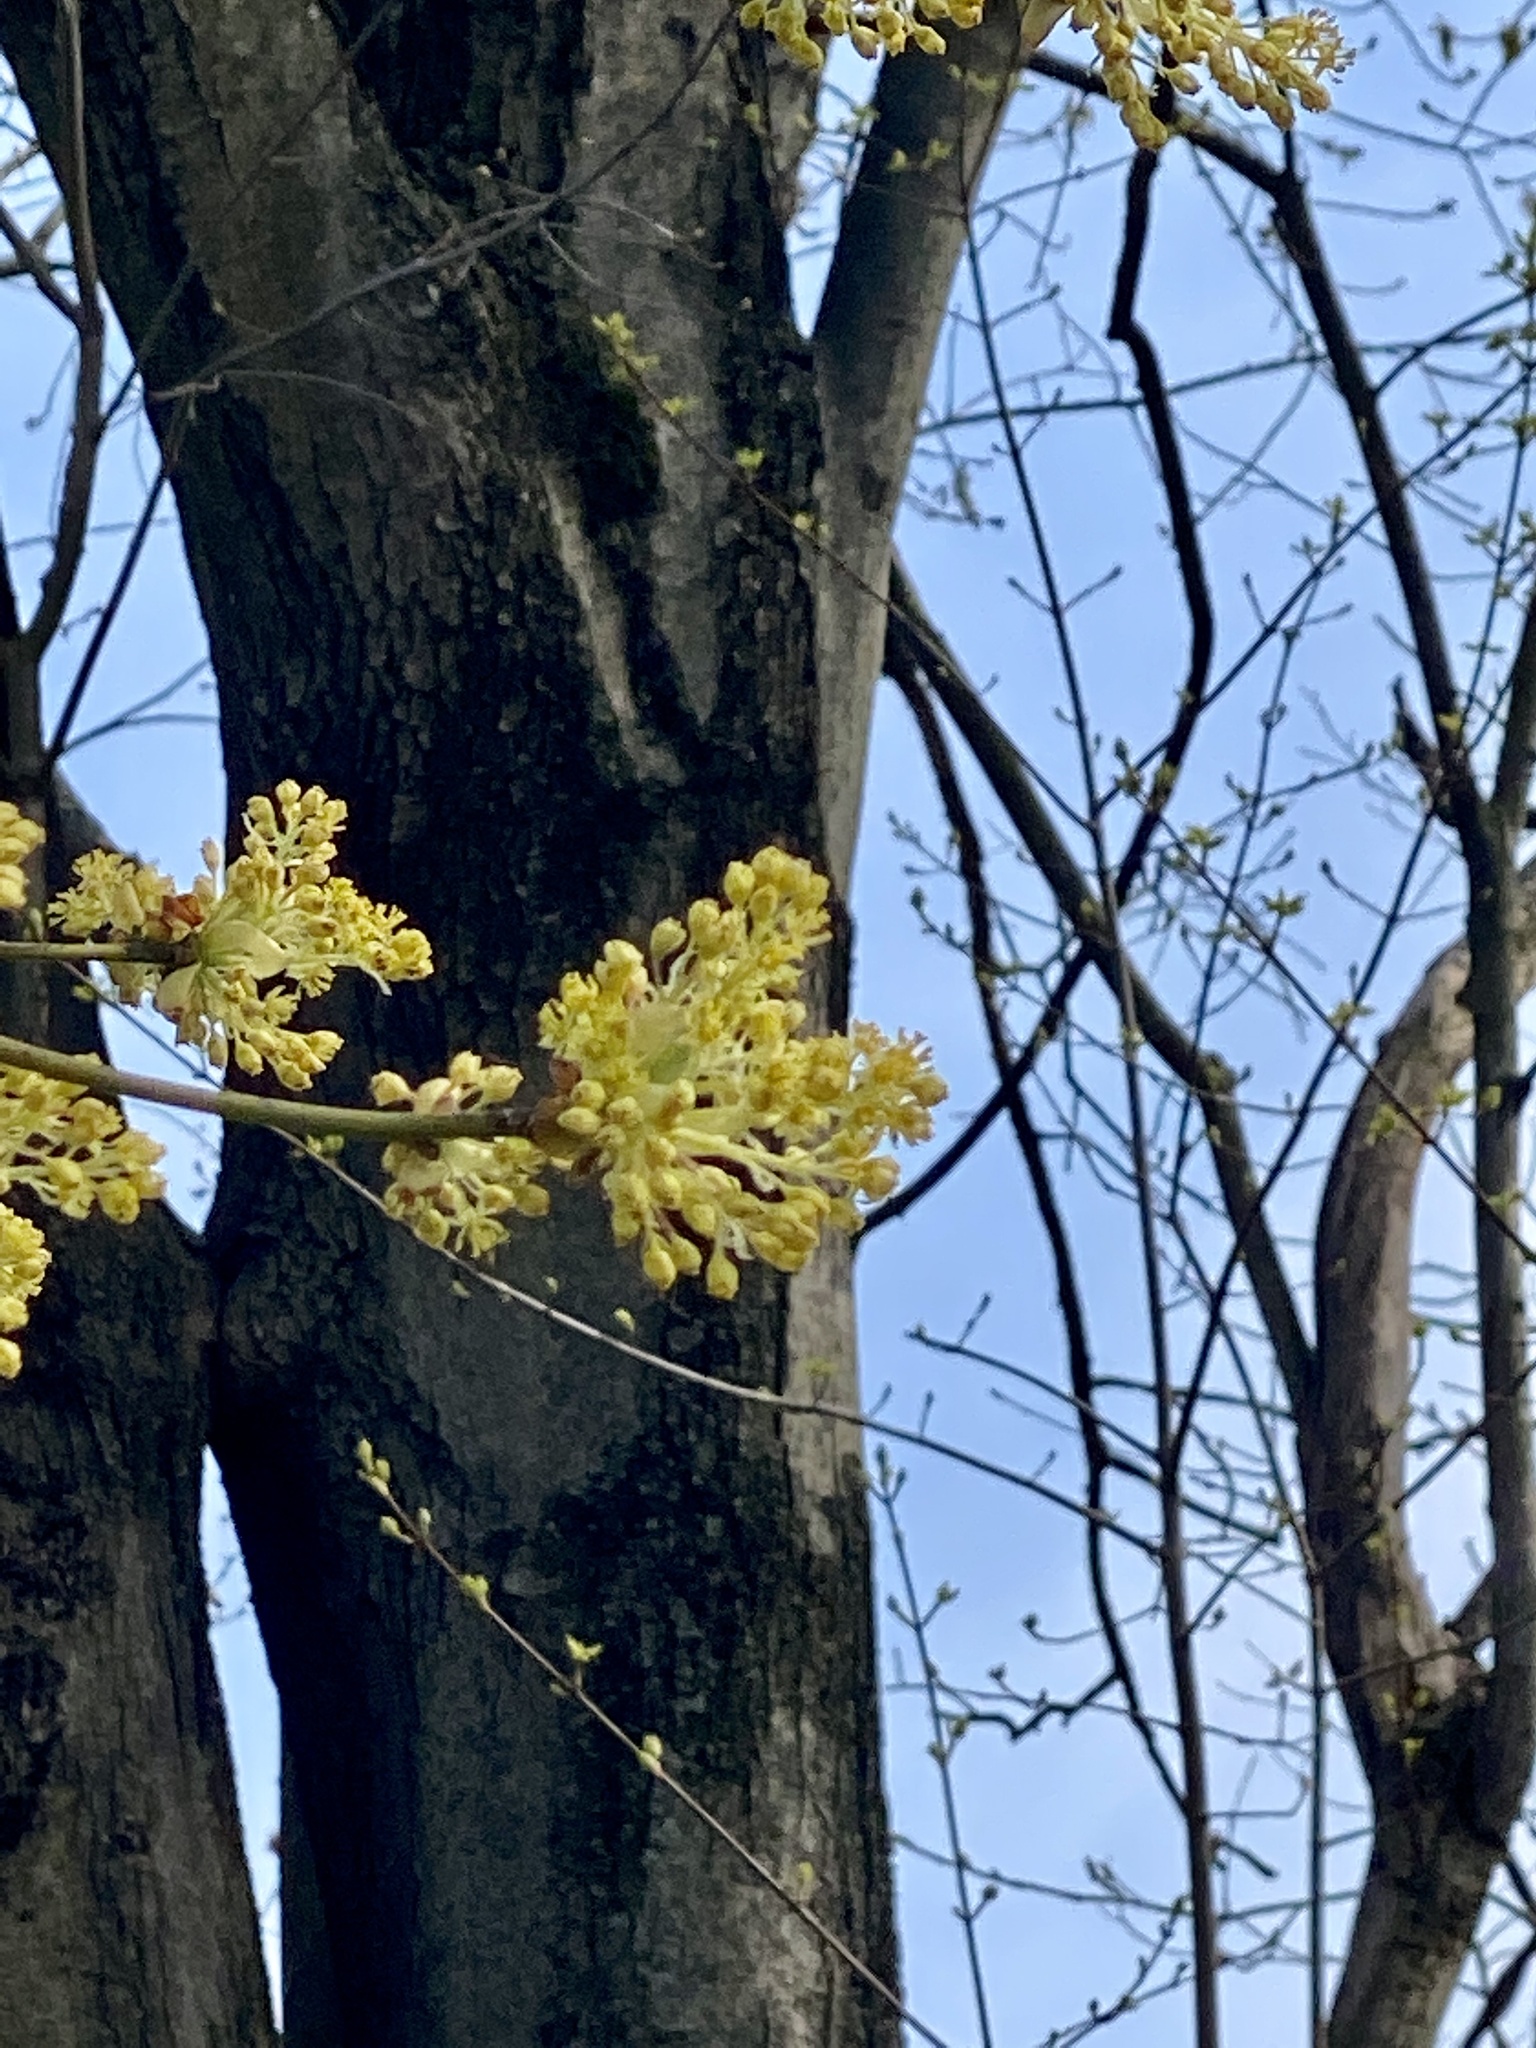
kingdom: Plantae
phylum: Tracheophyta
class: Magnoliopsida
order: Laurales
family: Lauraceae
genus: Sassafras
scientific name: Sassafras albidum
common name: Sassafras
